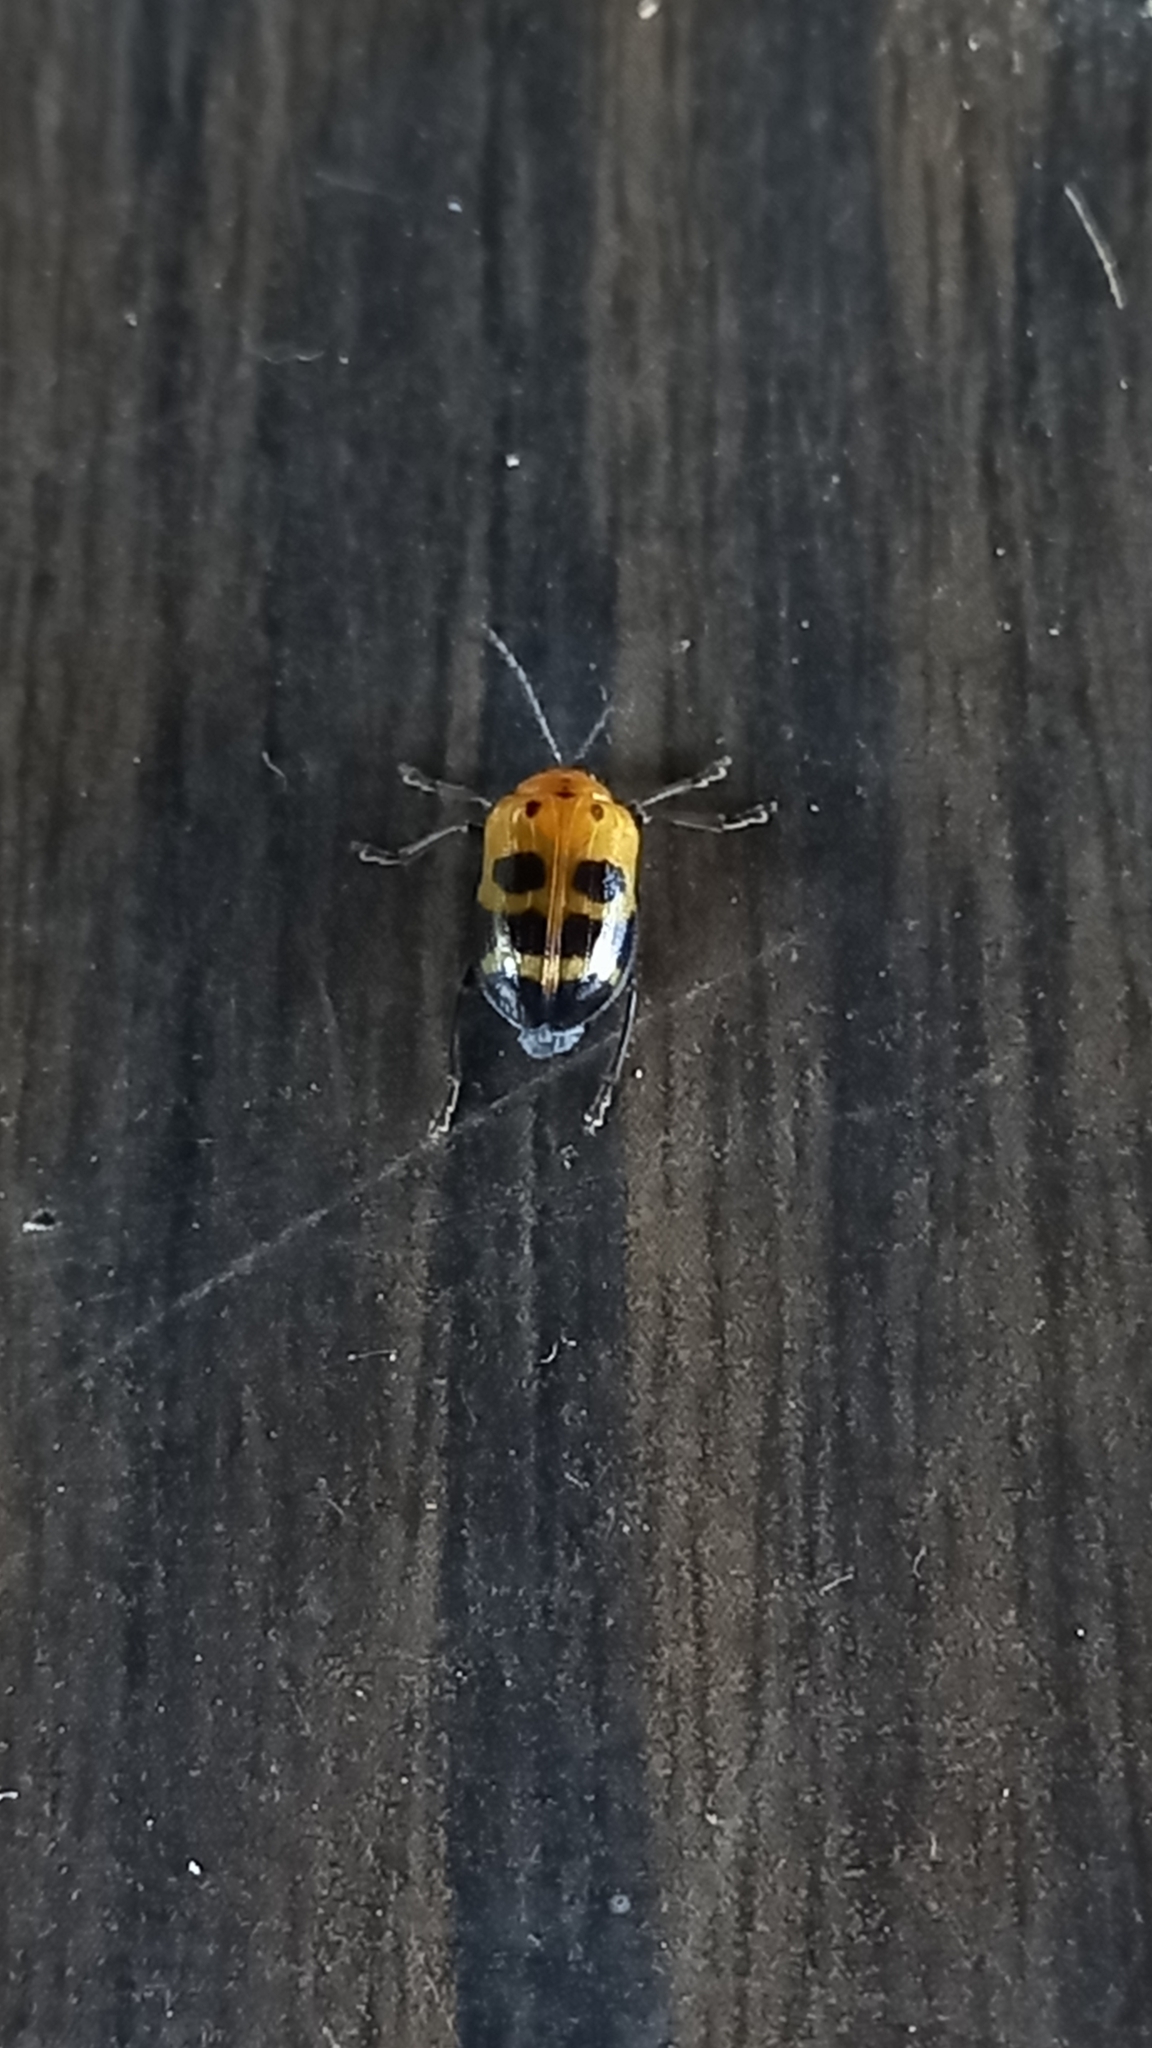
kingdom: Animalia
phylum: Arthropoda
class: Insecta
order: Coleoptera
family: Chrysomelidae
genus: Sphenoraia
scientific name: Sphenoraia
